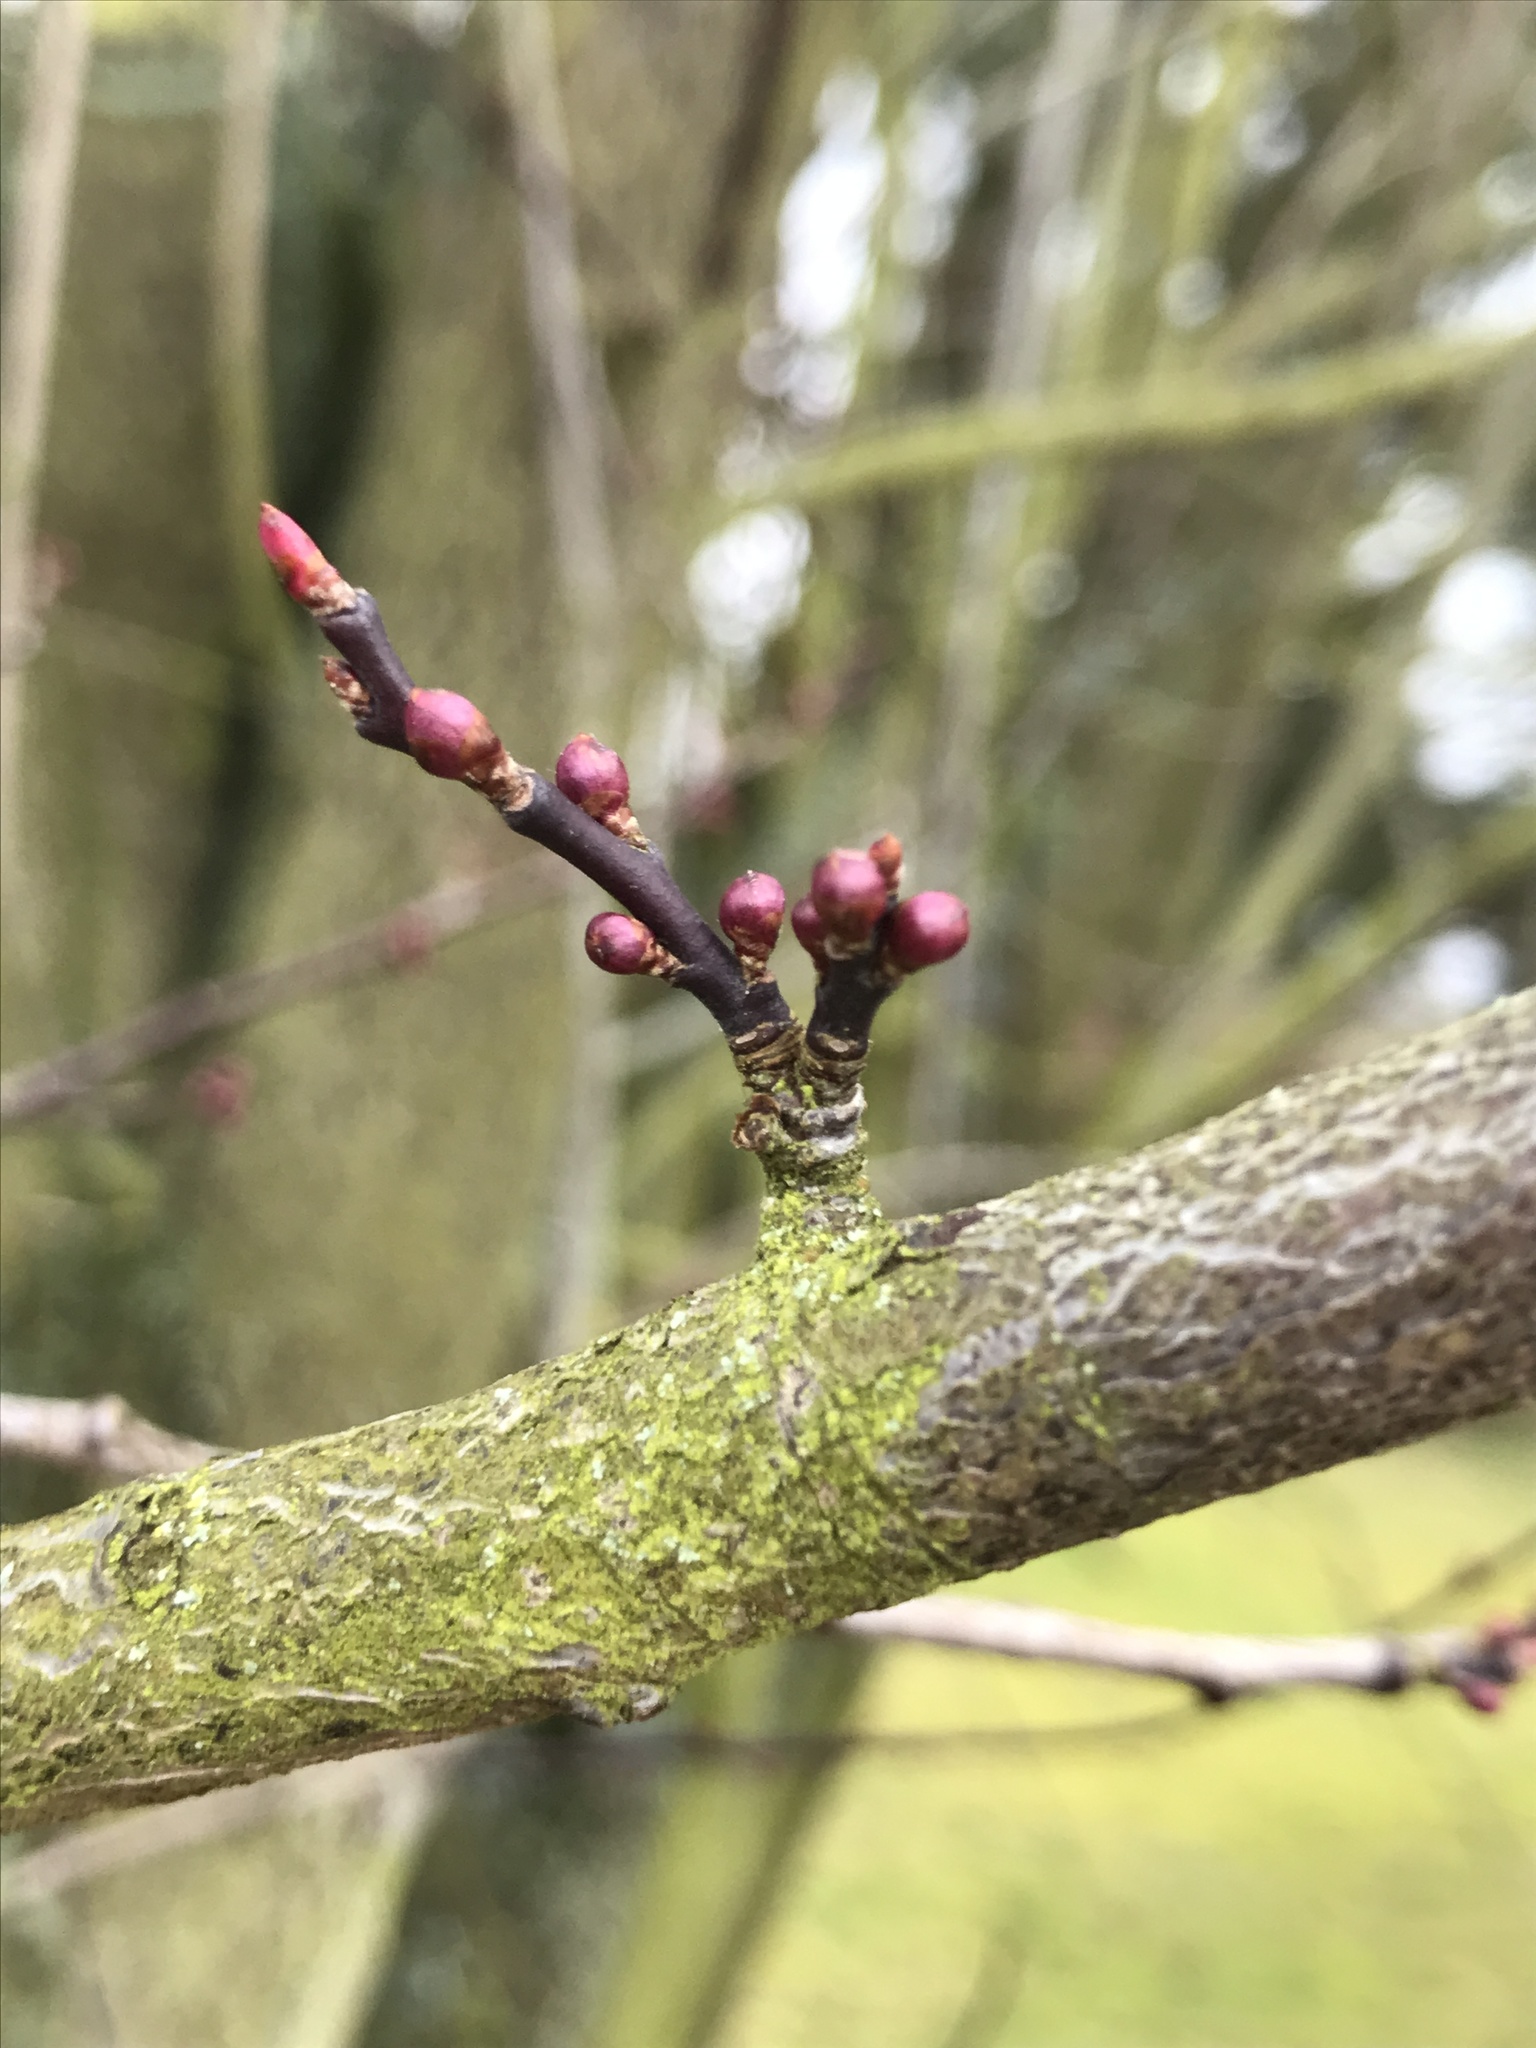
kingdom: Fungi
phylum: Basidiomycota
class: Agaricomycetes
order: Hymenochaetales
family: Hymenochaetaceae
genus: Phellinus
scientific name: Phellinus pomaceus
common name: Cushion bracket
